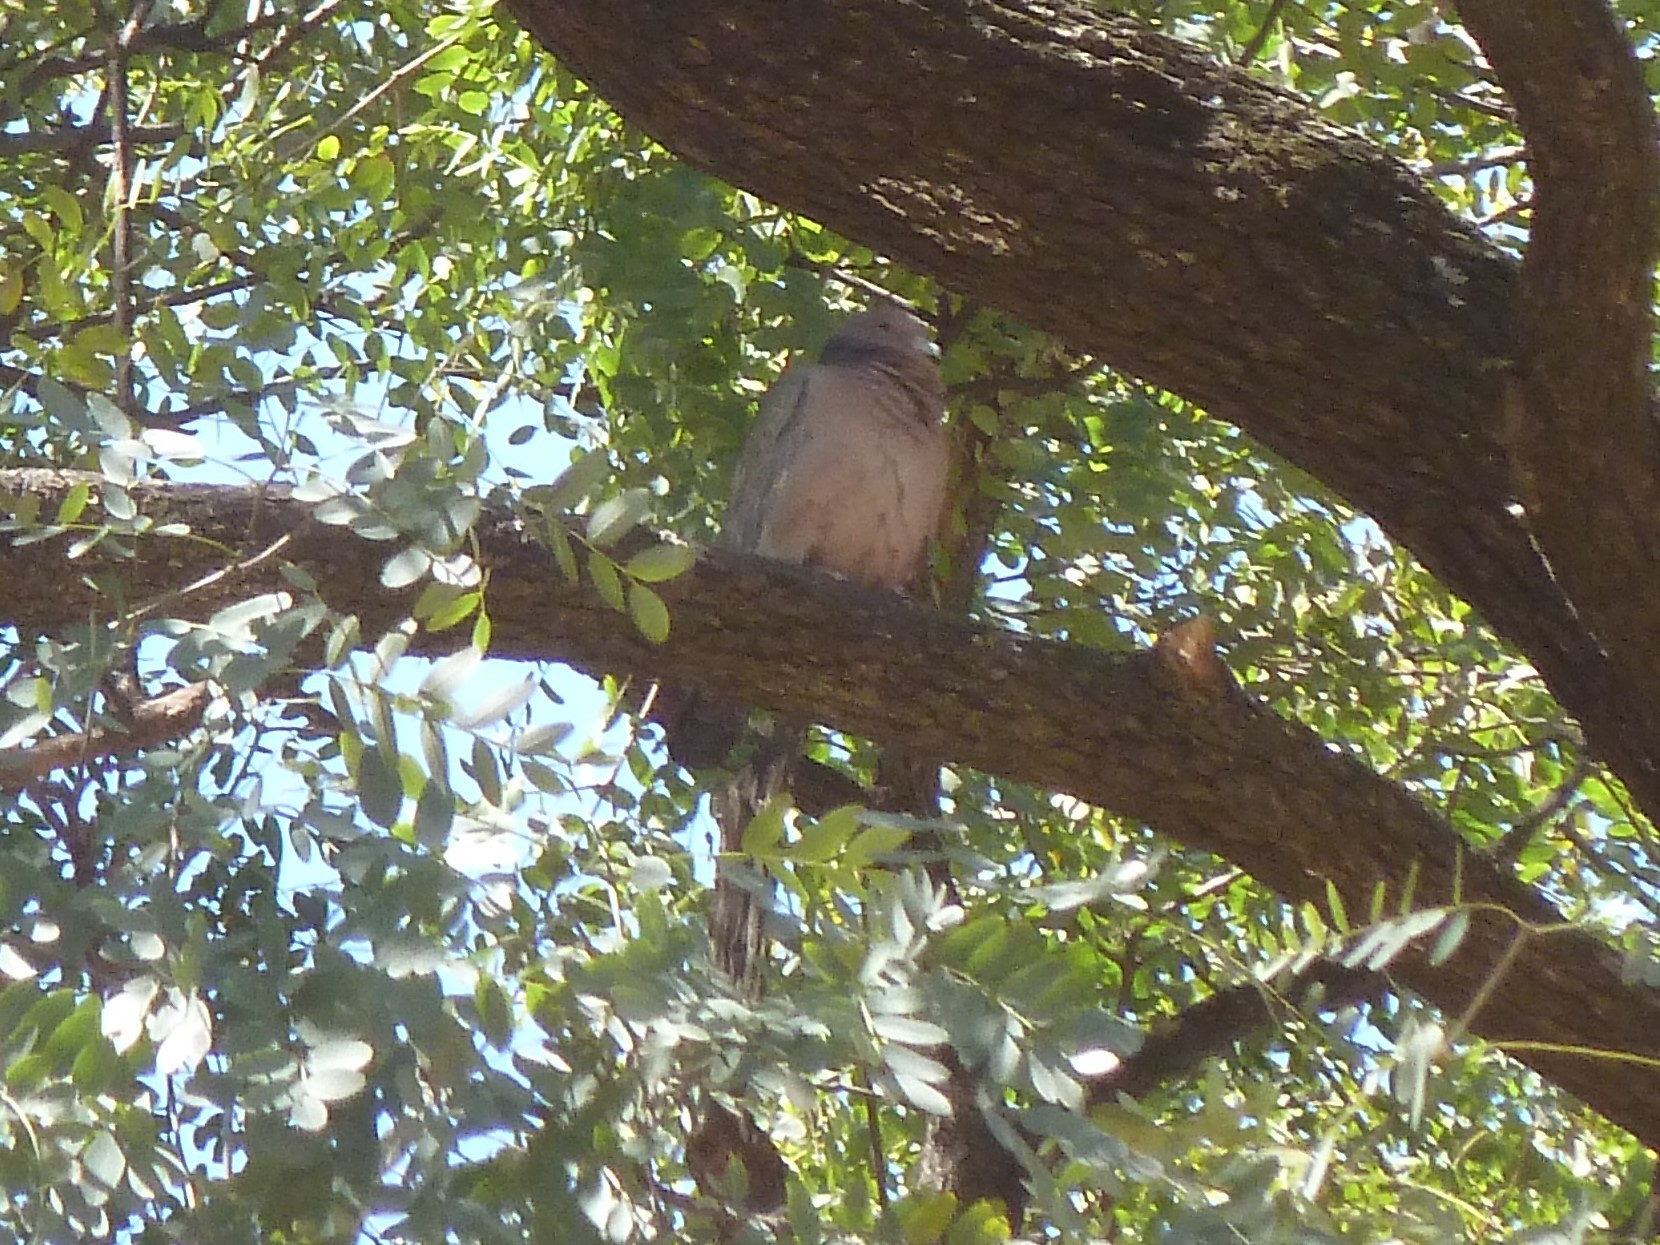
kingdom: Animalia
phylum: Chordata
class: Aves
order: Columbiformes
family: Columbidae
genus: Patagioenas
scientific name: Patagioenas picazuro
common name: Picazuro pigeon
